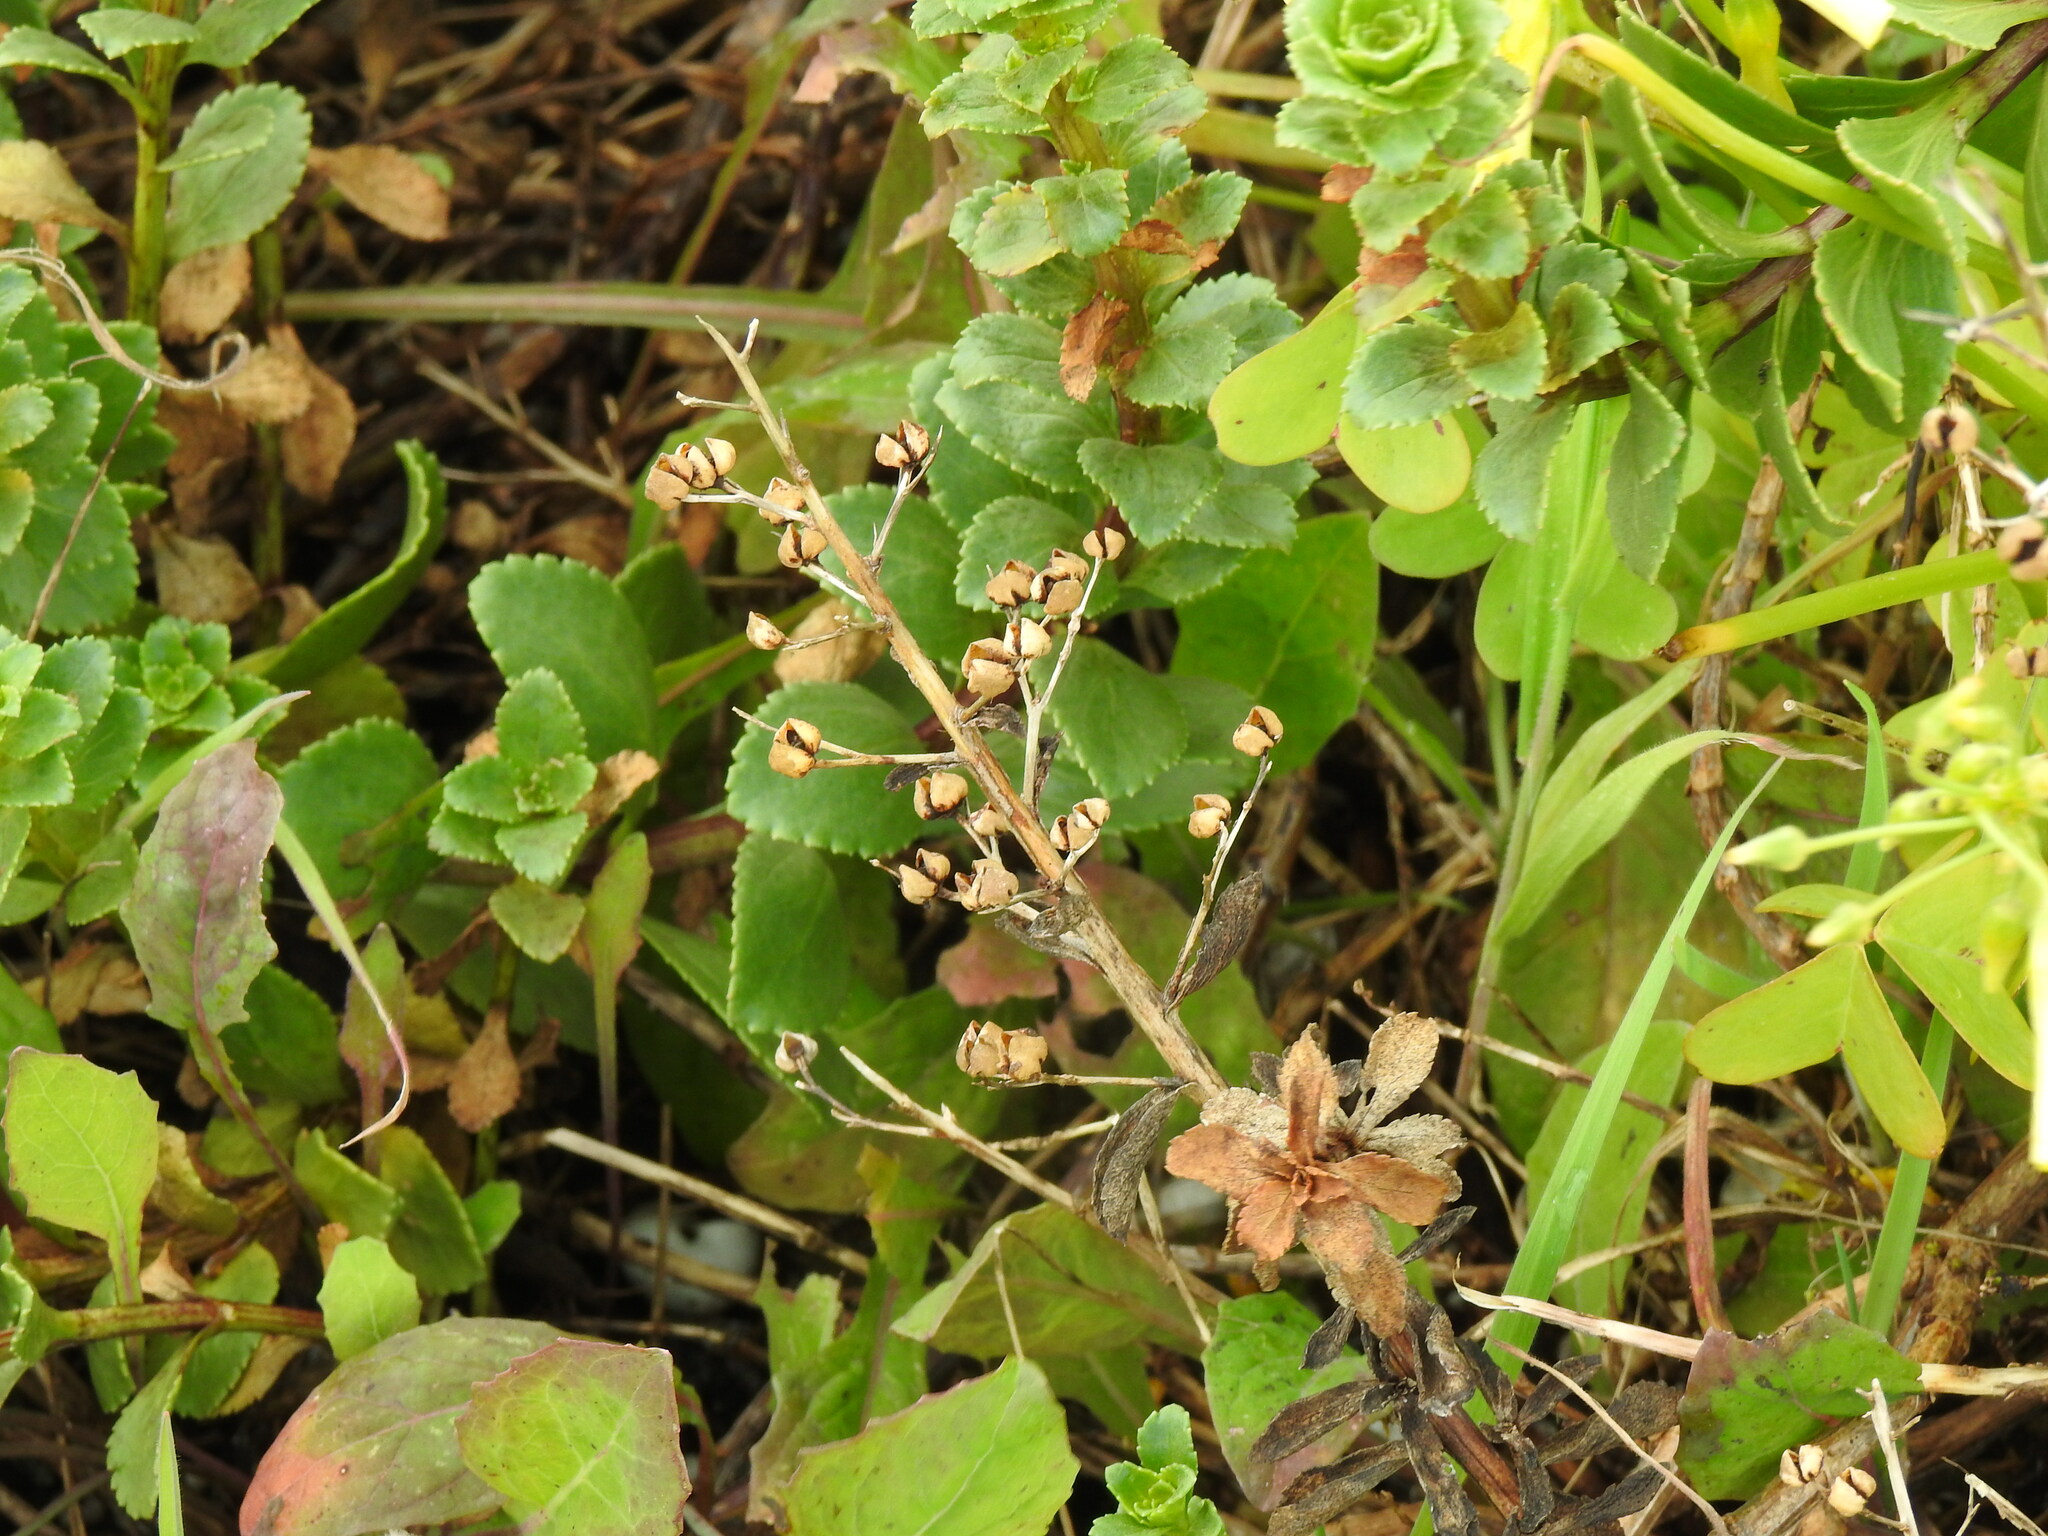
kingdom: Plantae
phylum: Tracheophyta
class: Magnoliopsida
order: Lamiales
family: Scrophulariaceae
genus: Scrophularia
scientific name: Scrophularia frutescens
